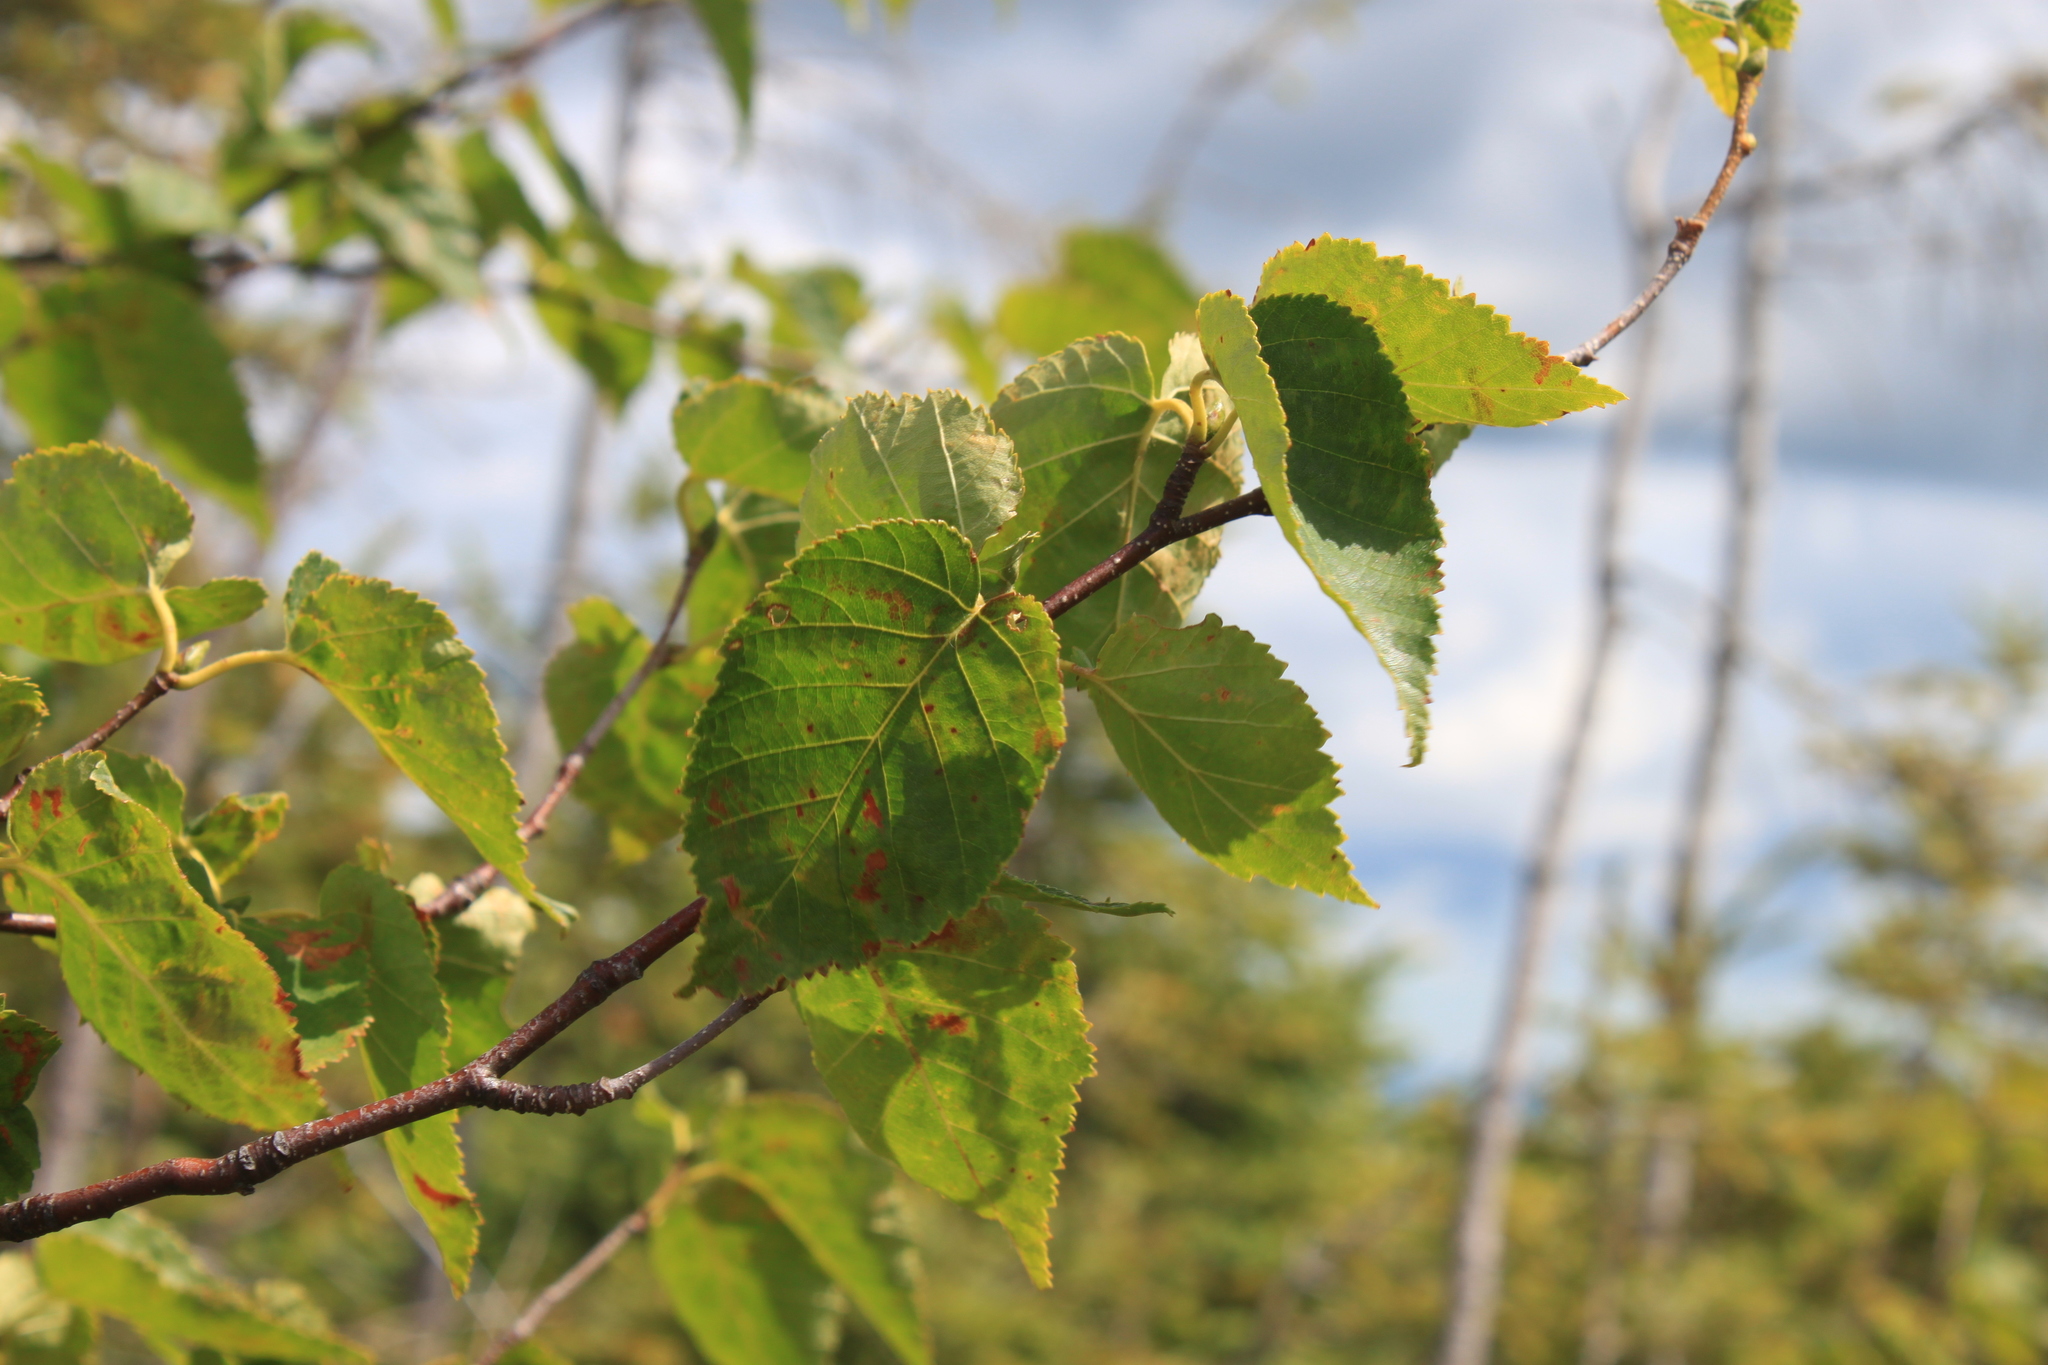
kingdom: Plantae
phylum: Tracheophyta
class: Magnoliopsida
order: Fagales
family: Betulaceae
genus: Betula
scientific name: Betula cordifolia
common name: Mountain white birch
